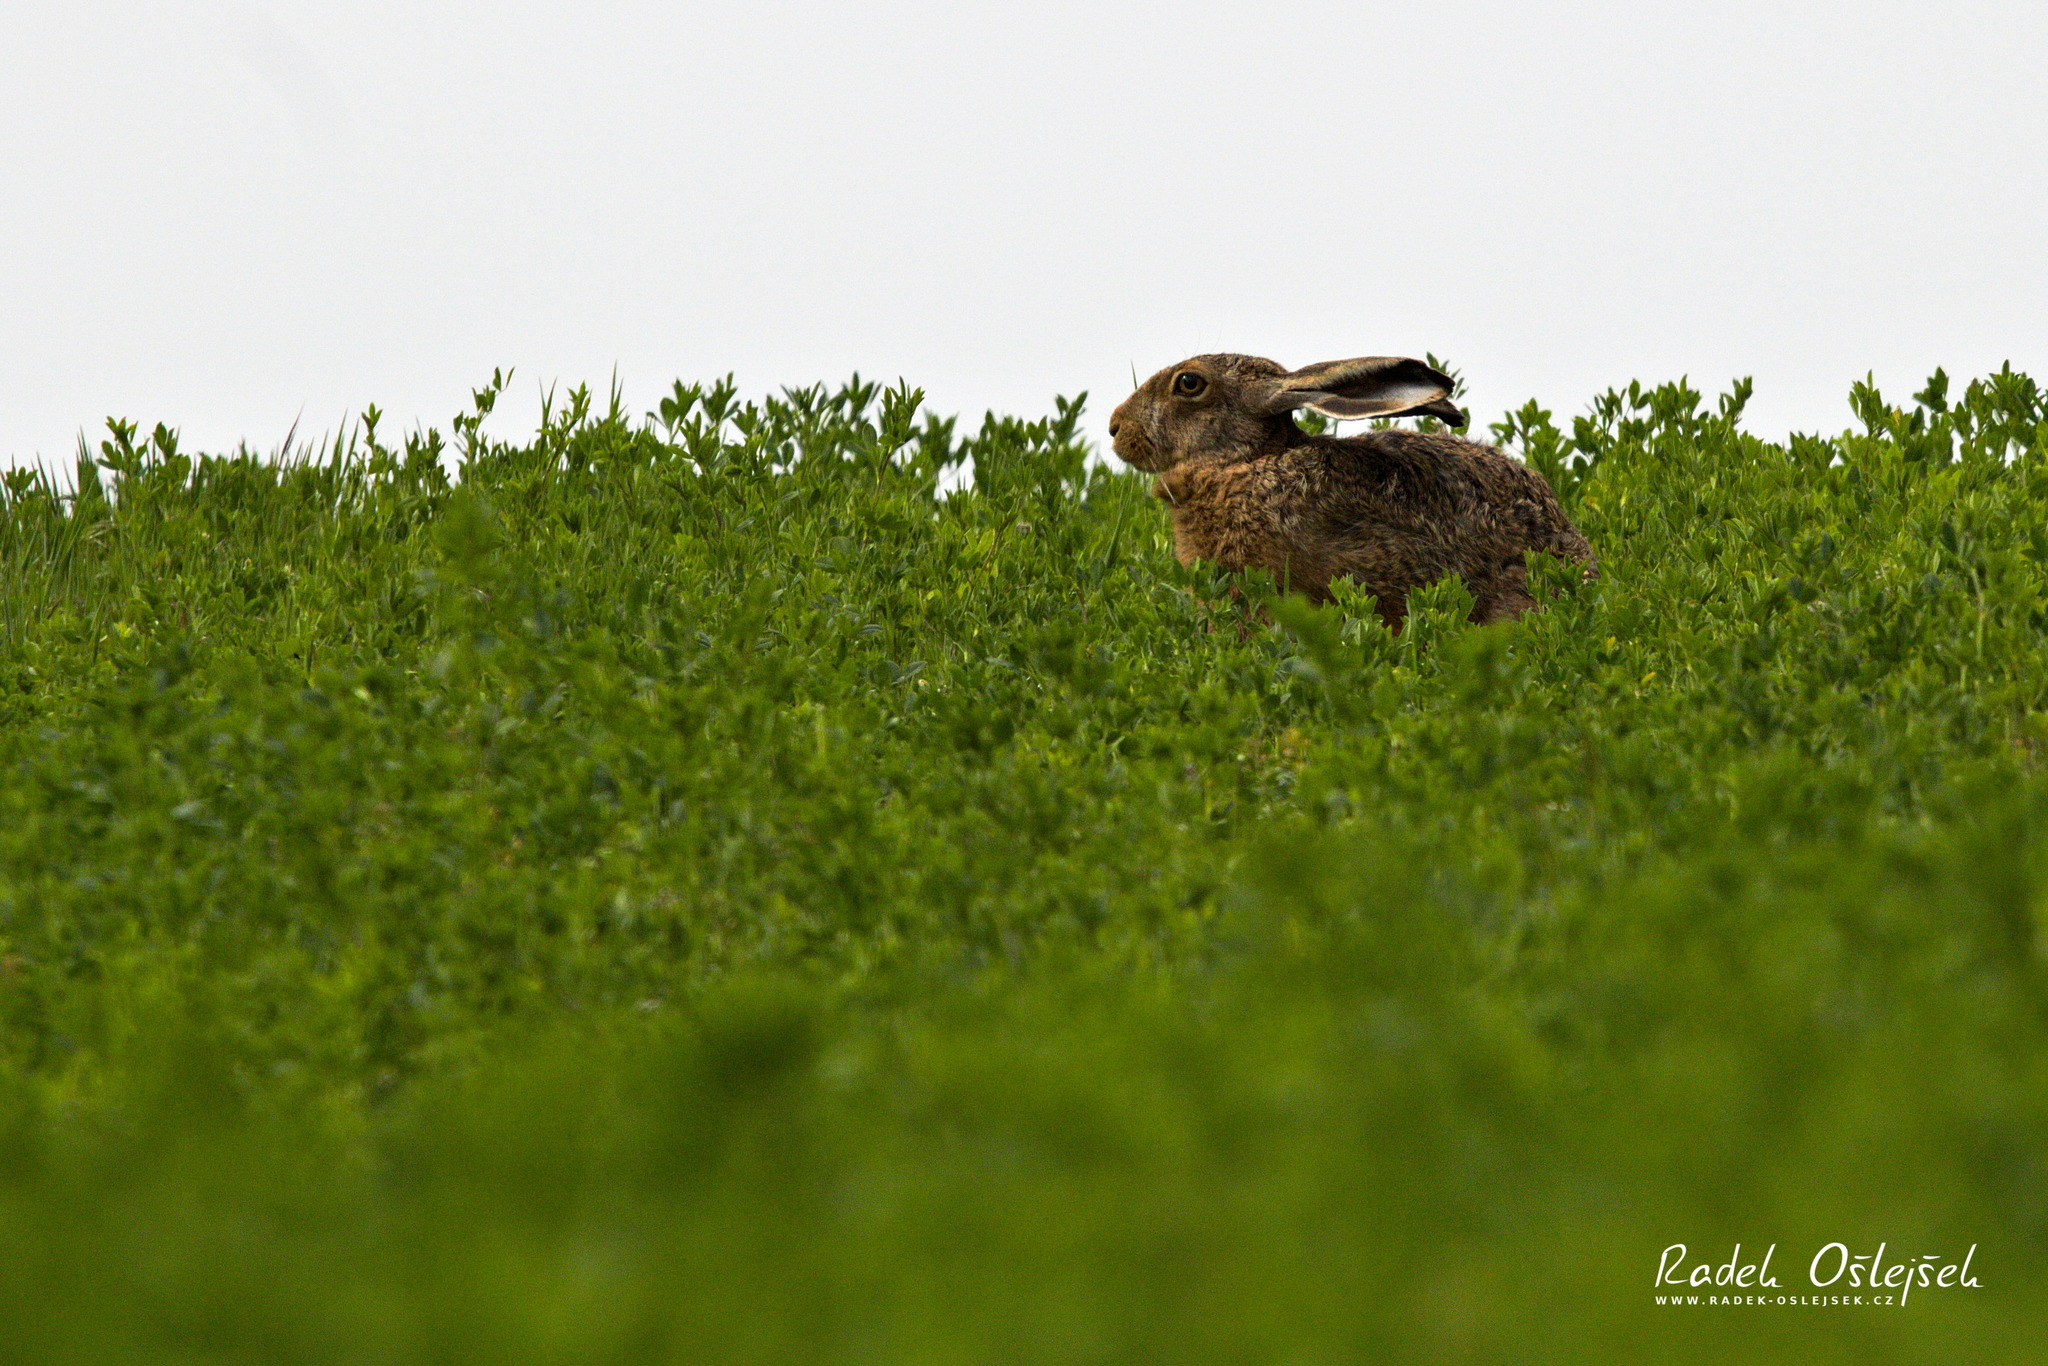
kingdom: Animalia
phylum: Chordata
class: Mammalia
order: Lagomorpha
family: Leporidae
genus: Lepus
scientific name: Lepus europaeus
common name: European hare
